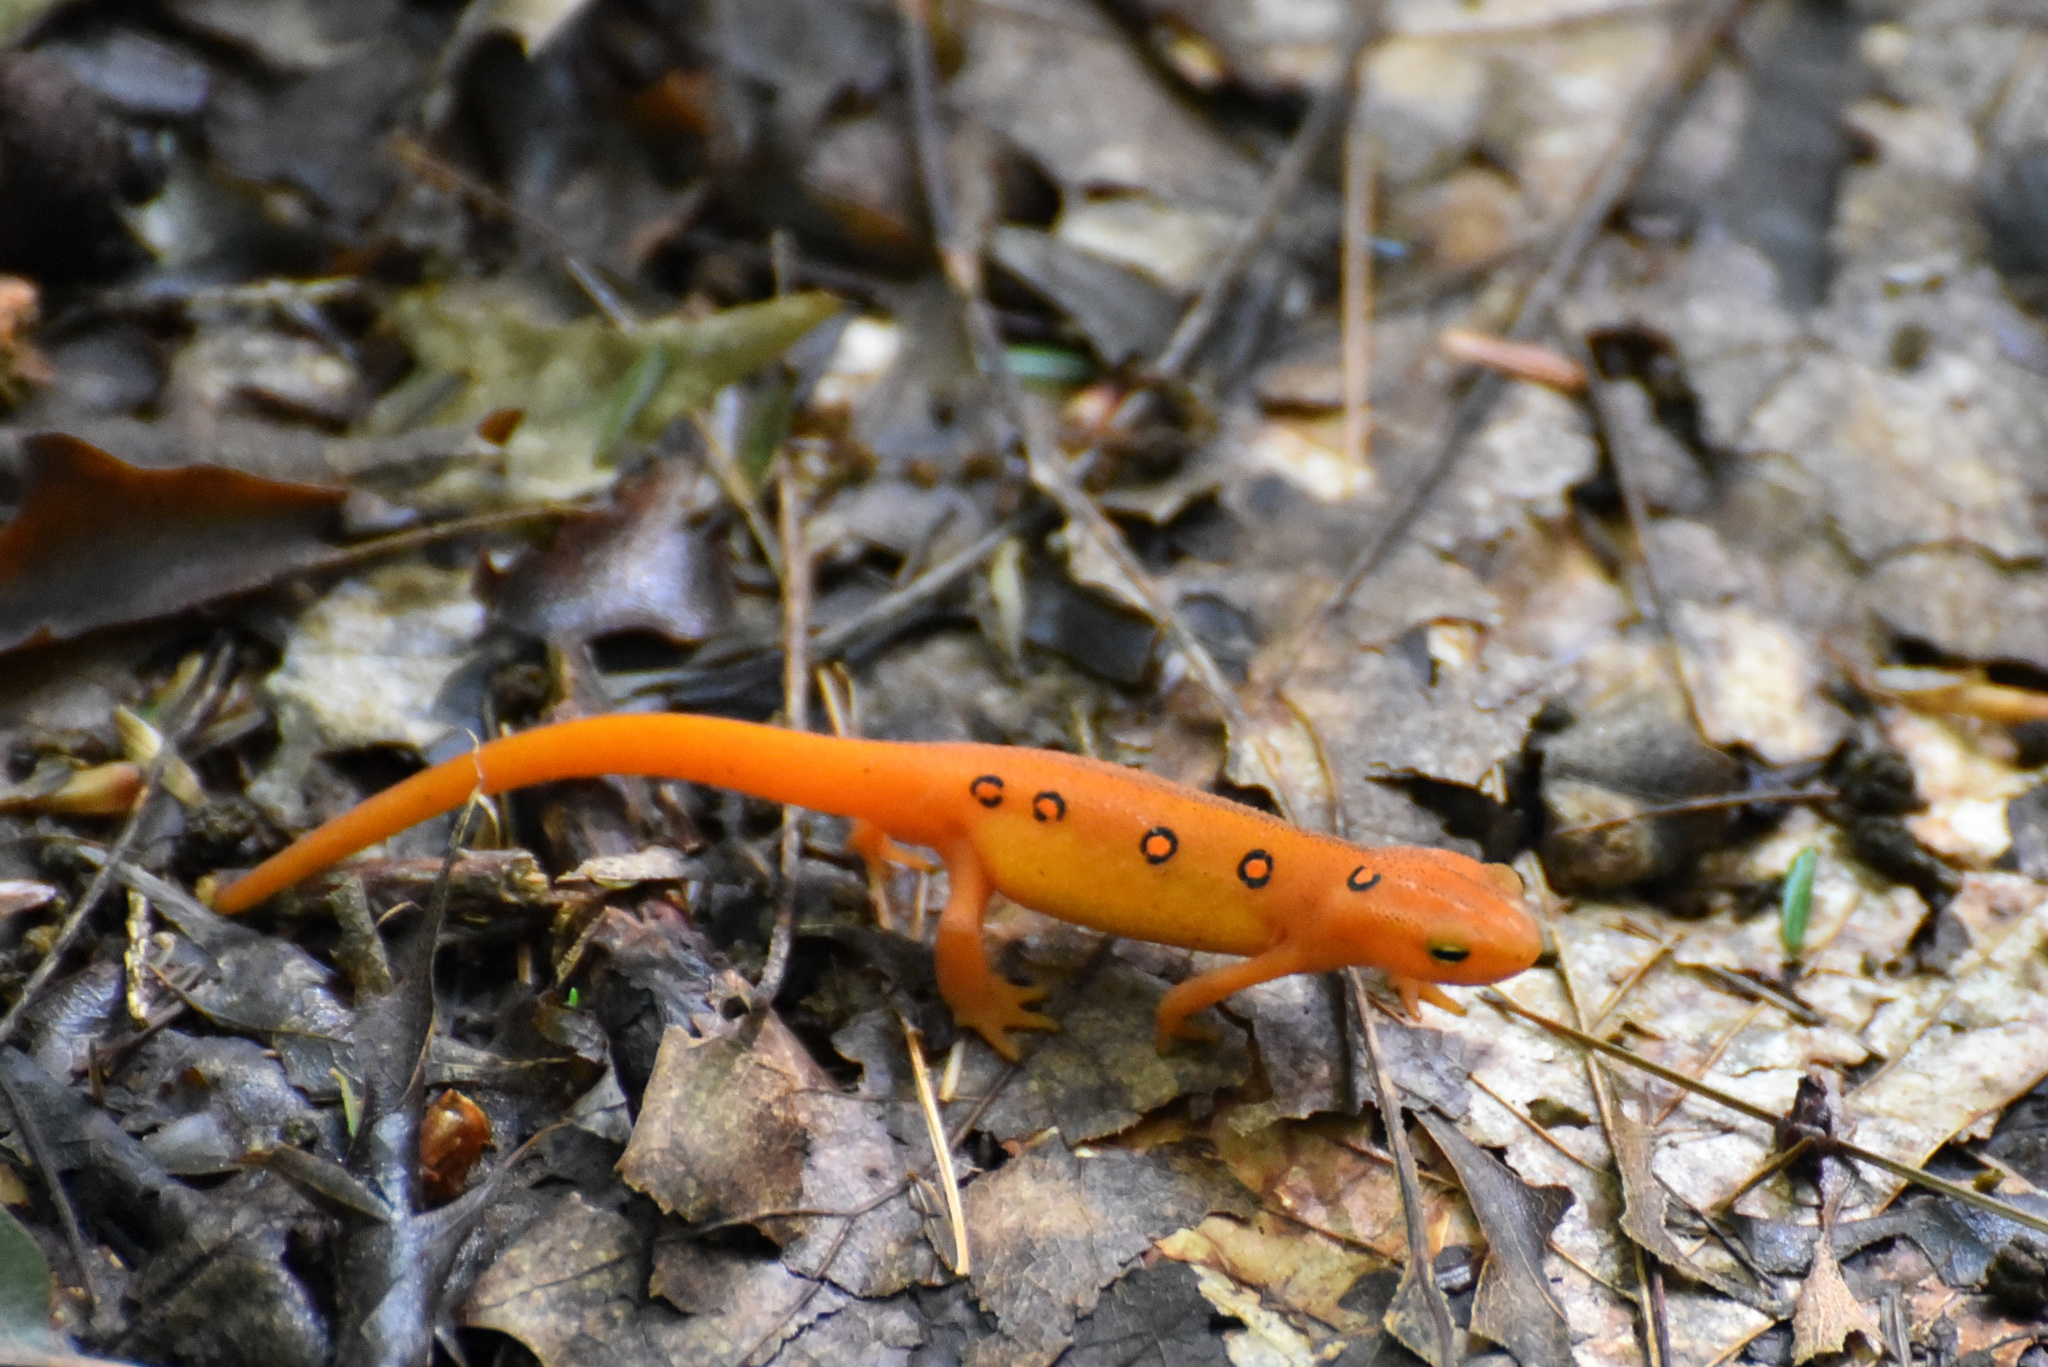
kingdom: Animalia
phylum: Chordata
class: Amphibia
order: Caudata
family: Salamandridae
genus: Notophthalmus
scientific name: Notophthalmus viridescens
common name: Eastern newt
